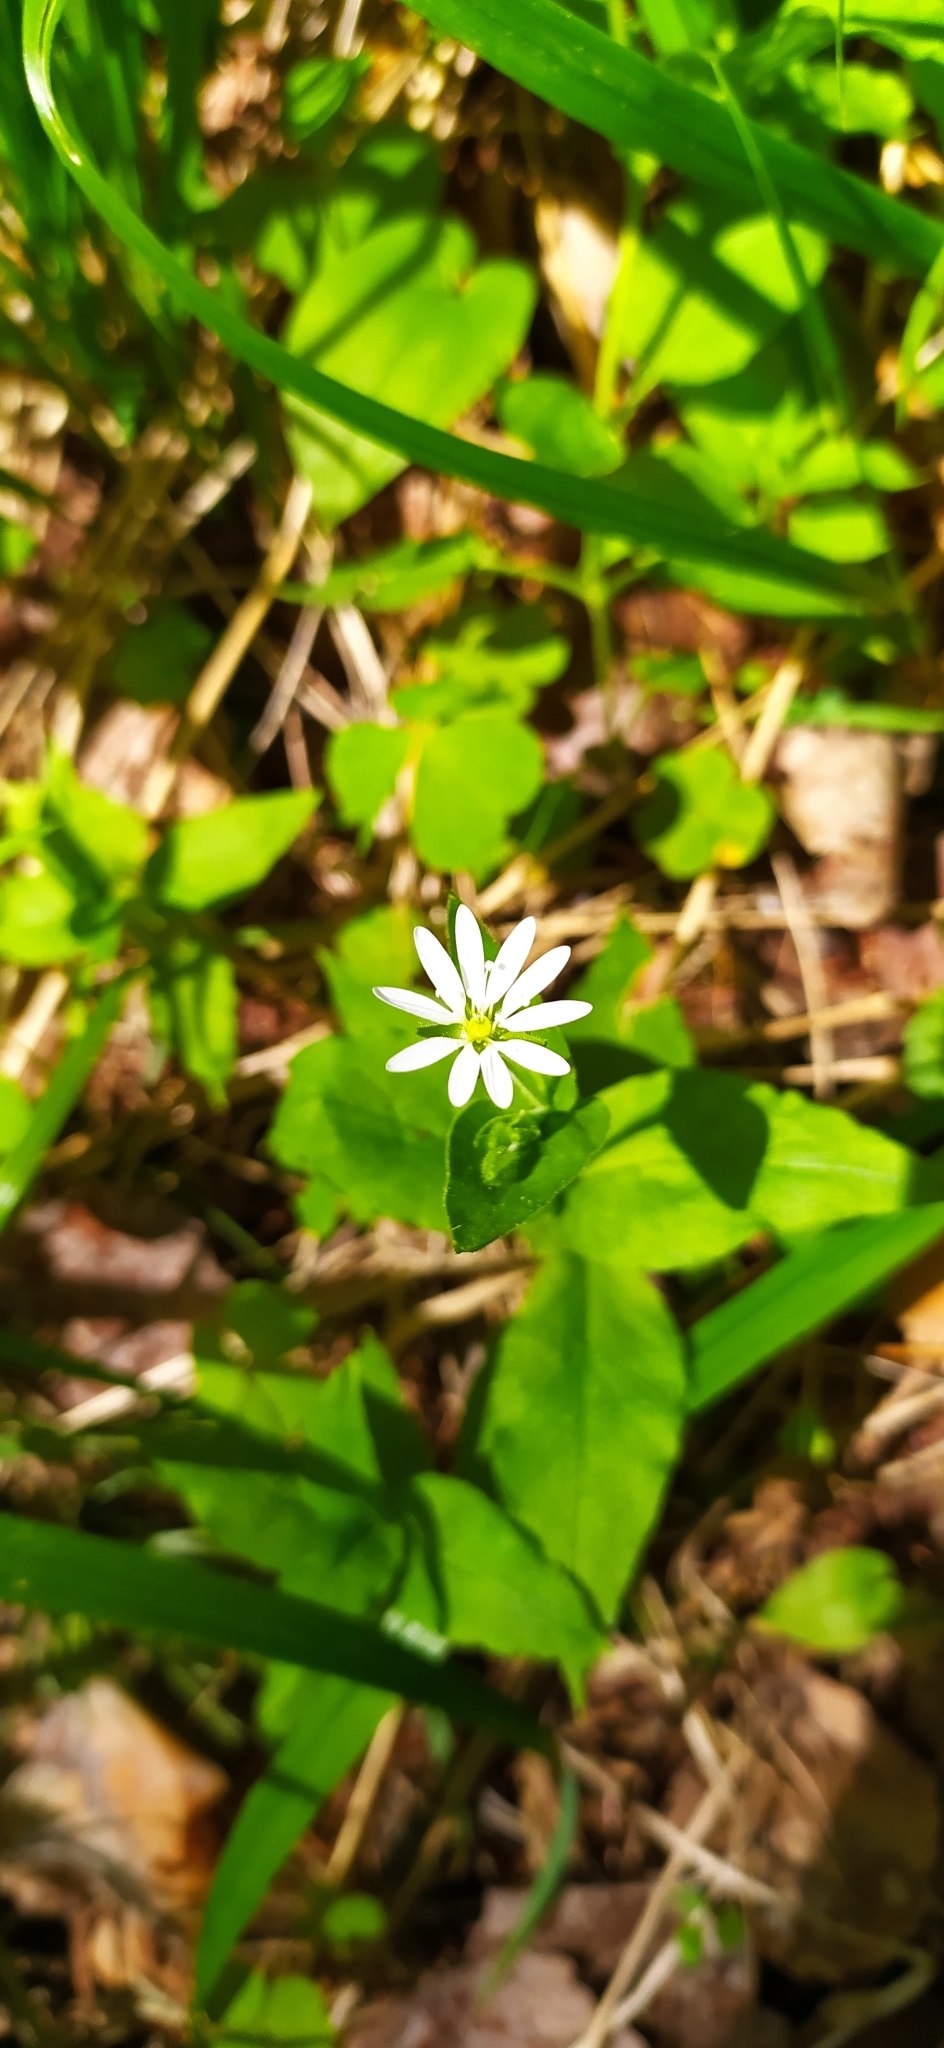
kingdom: Plantae
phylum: Tracheophyta
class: Magnoliopsida
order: Caryophyllales
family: Caryophyllaceae
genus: Stellaria
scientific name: Stellaria bungeana
